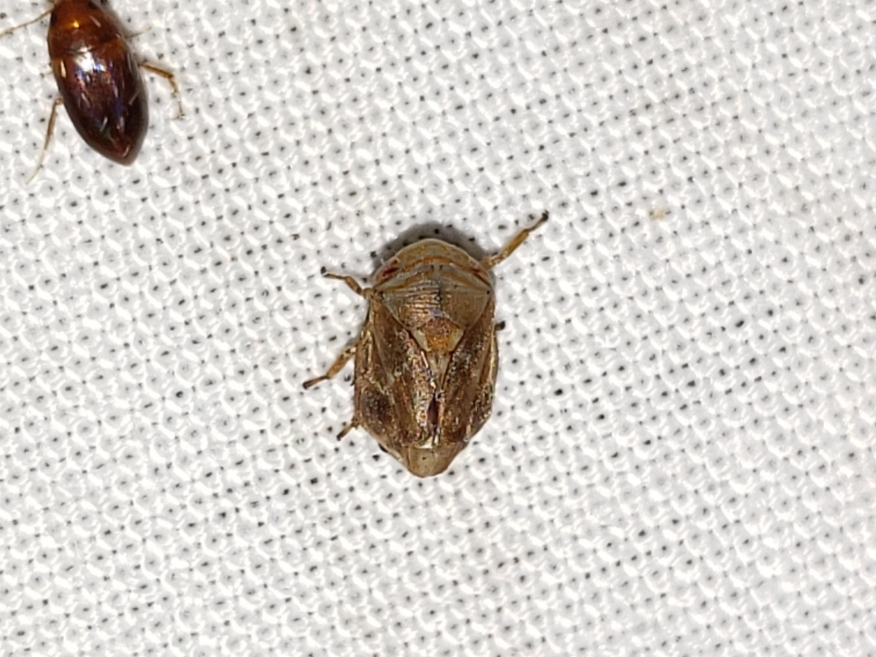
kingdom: Animalia
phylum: Arthropoda
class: Insecta
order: Hemiptera
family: Clastopteridae
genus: Clastoptera
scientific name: Clastoptera querci
